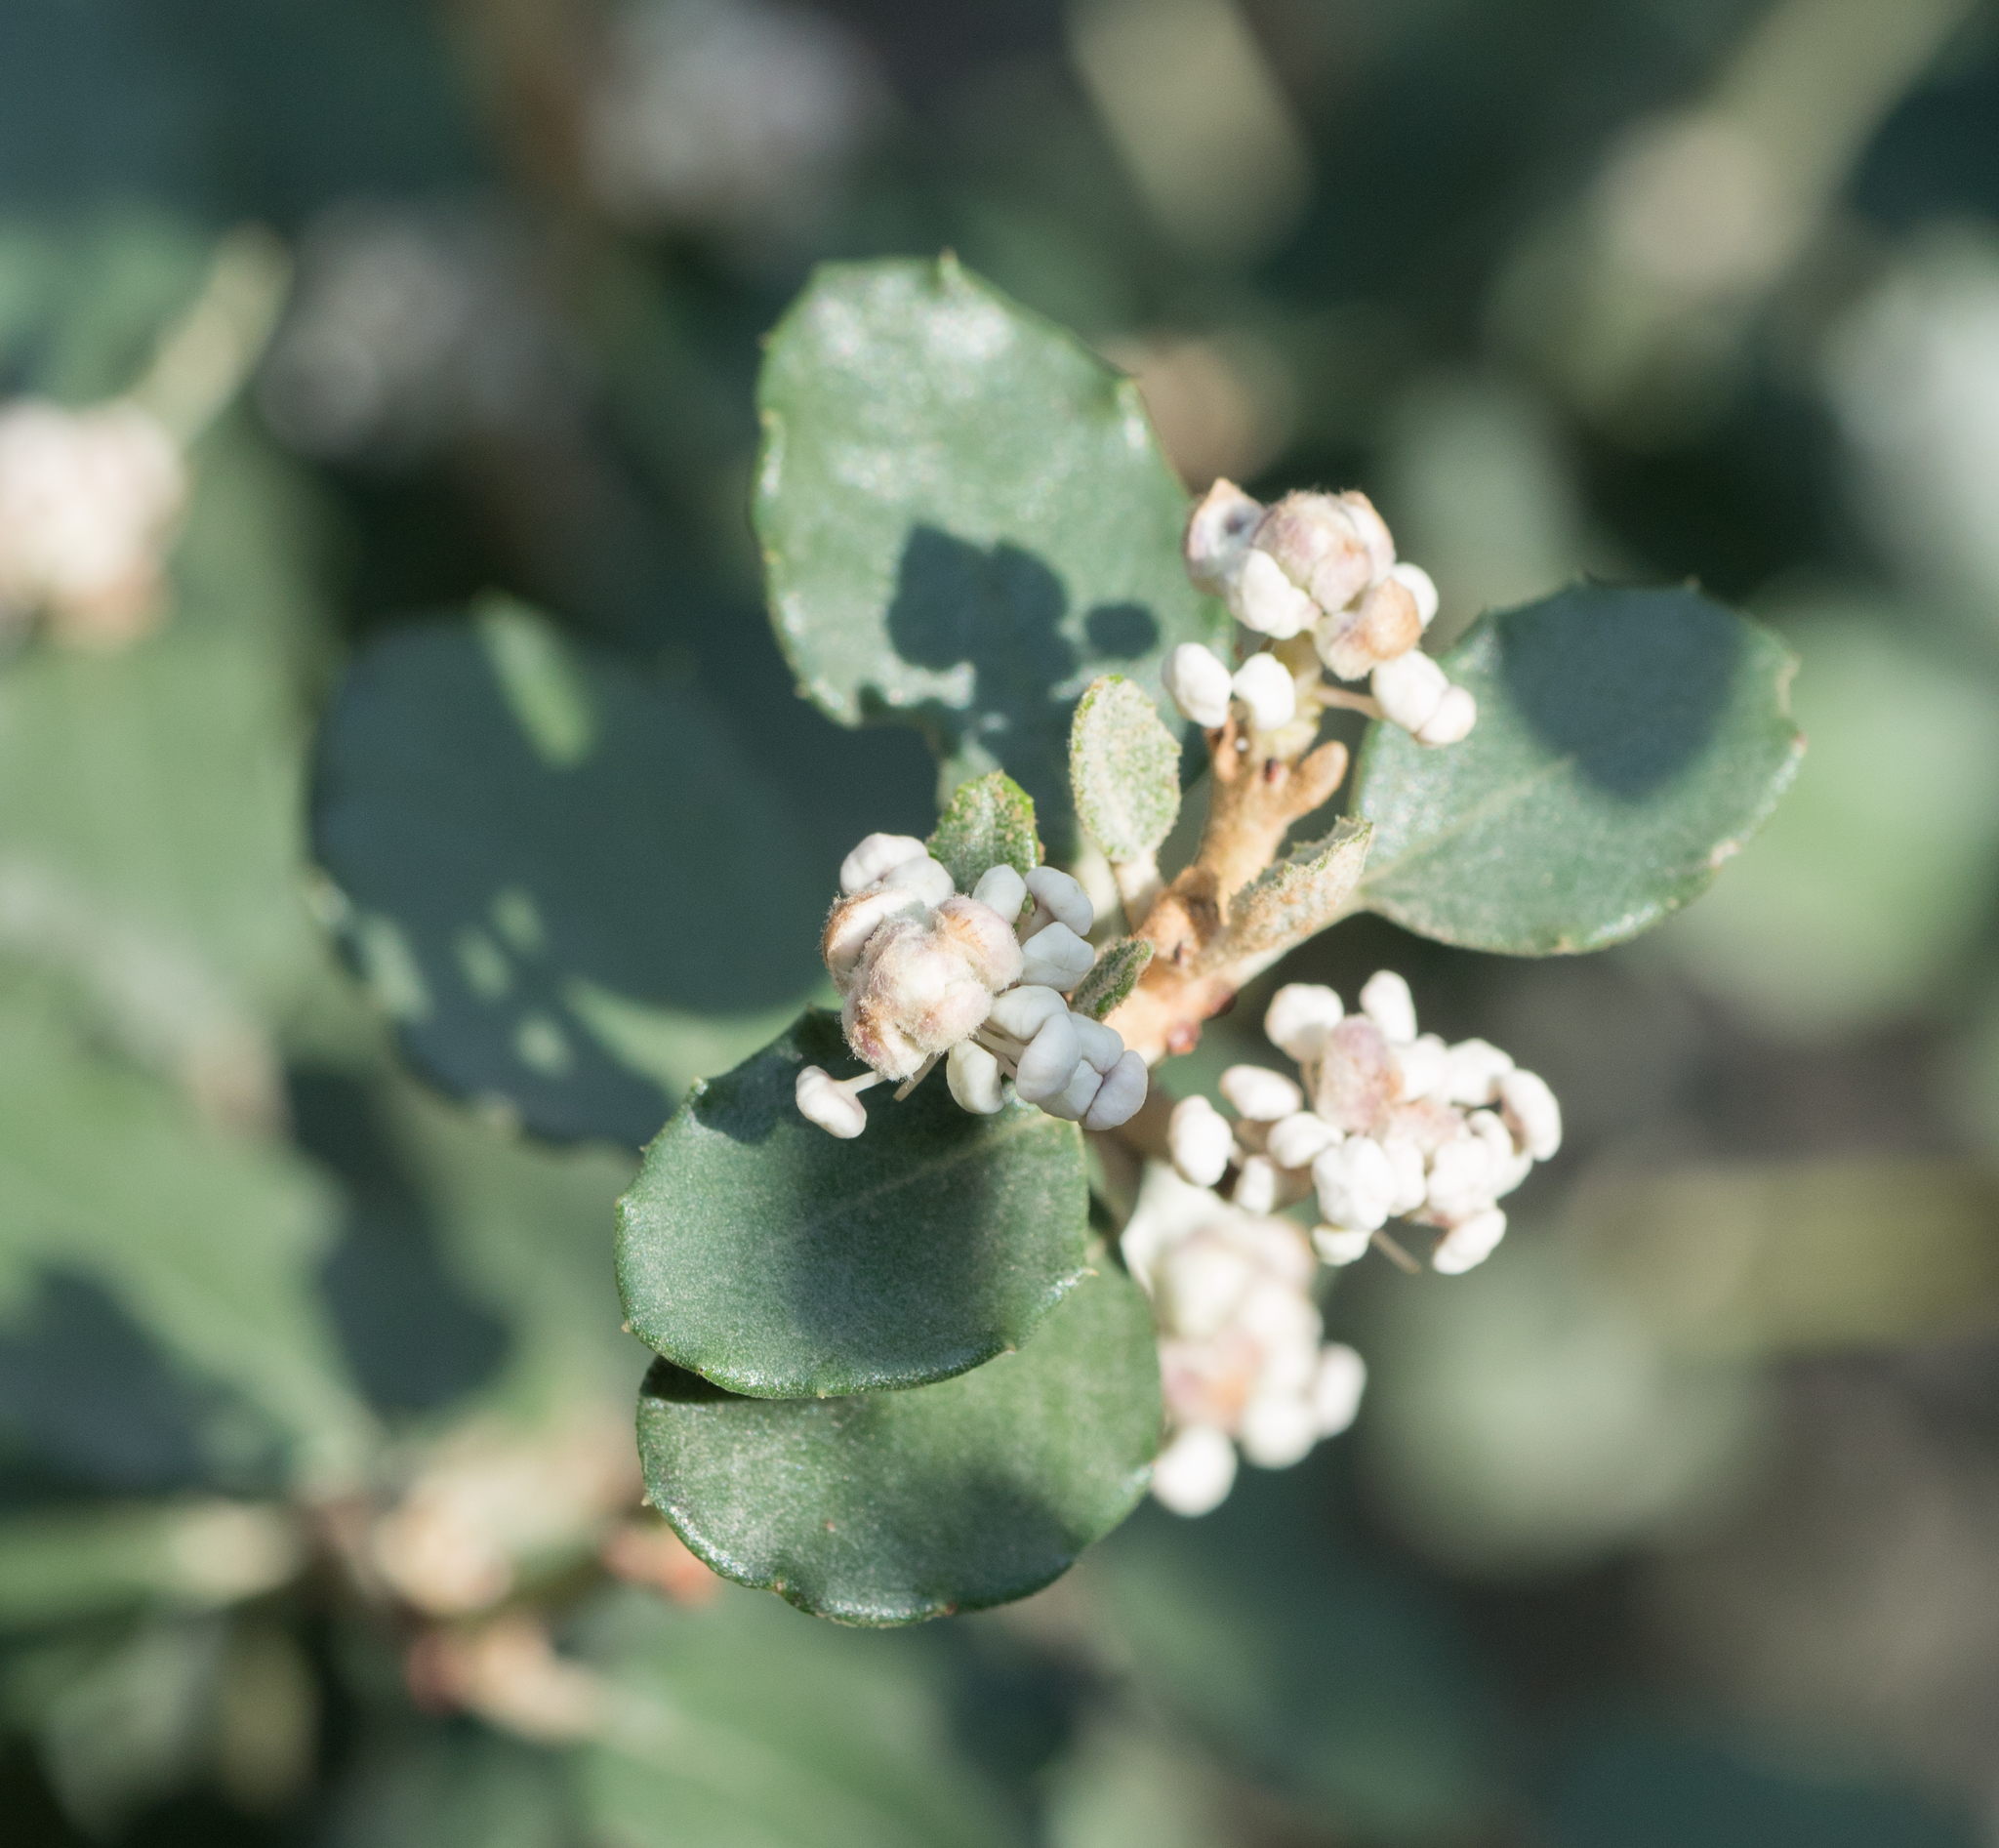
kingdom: Plantae
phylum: Tracheophyta
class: Magnoliopsida
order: Rosales
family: Rhamnaceae
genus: Ceanothus
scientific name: Ceanothus crassifolius
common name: Hoaryleaf ceanothus
